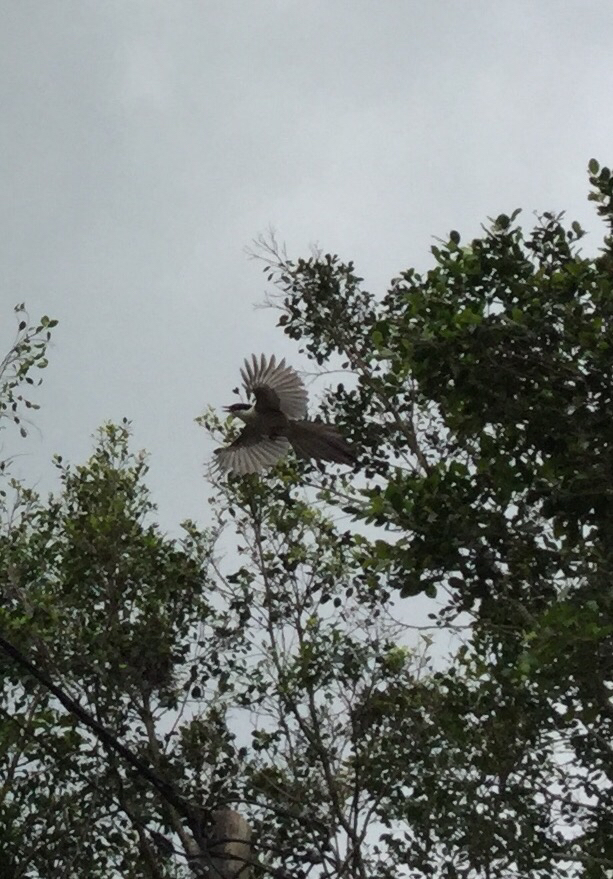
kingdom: Animalia
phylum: Chordata
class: Aves
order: Passeriformes
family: Corvidae
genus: Cyanopica
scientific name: Cyanopica cyanus
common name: Azure-winged magpie
